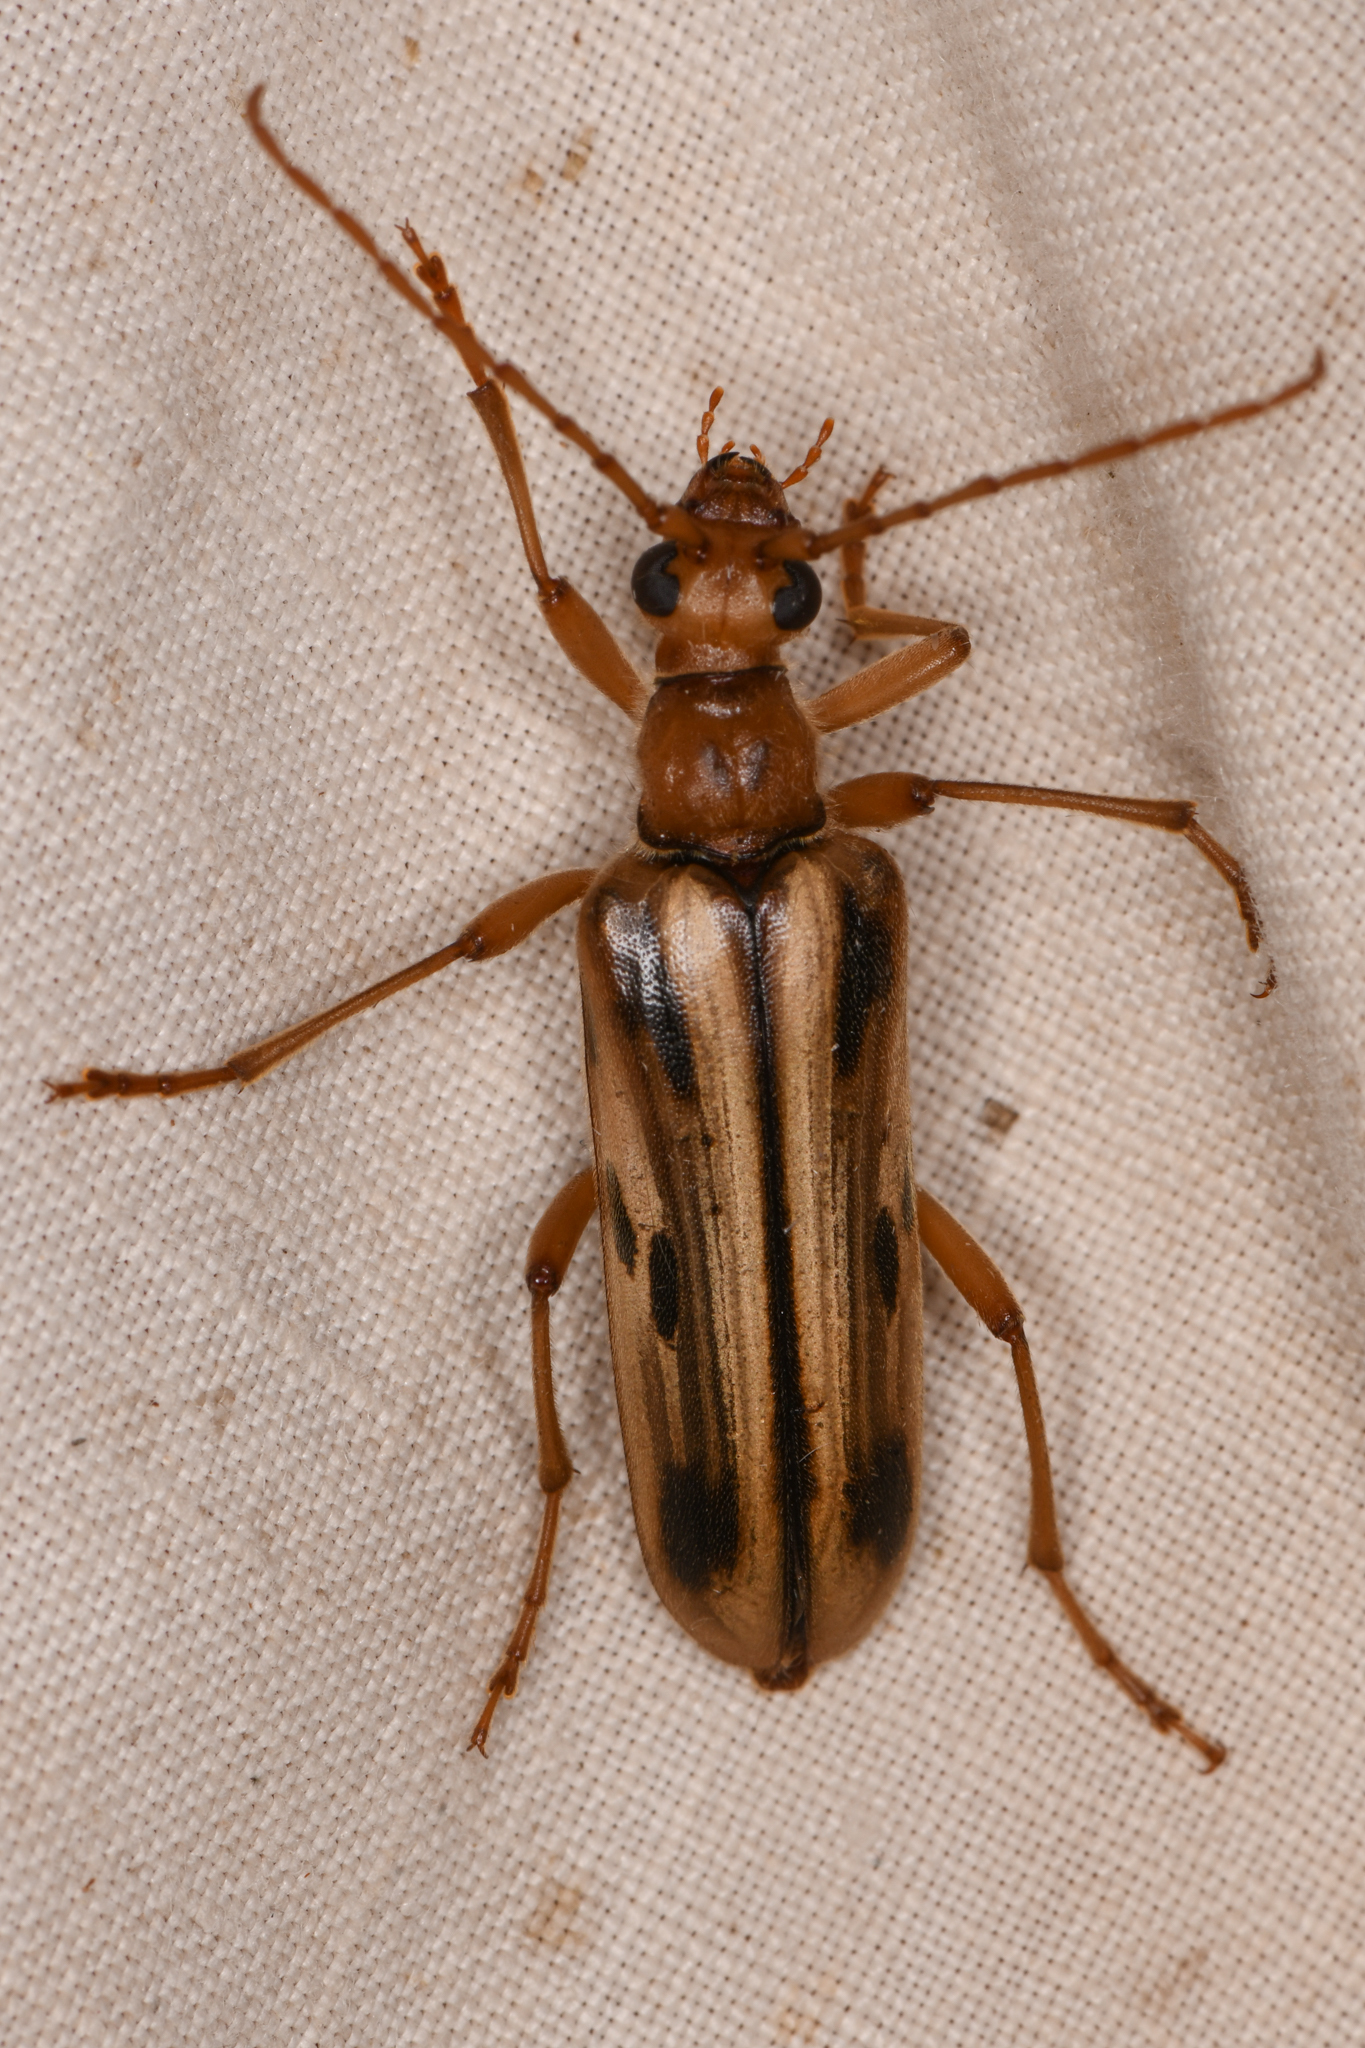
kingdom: Animalia
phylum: Arthropoda
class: Insecta
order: Coleoptera
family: Cerambycidae
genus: Ortholeptura
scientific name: Ortholeptura valida
